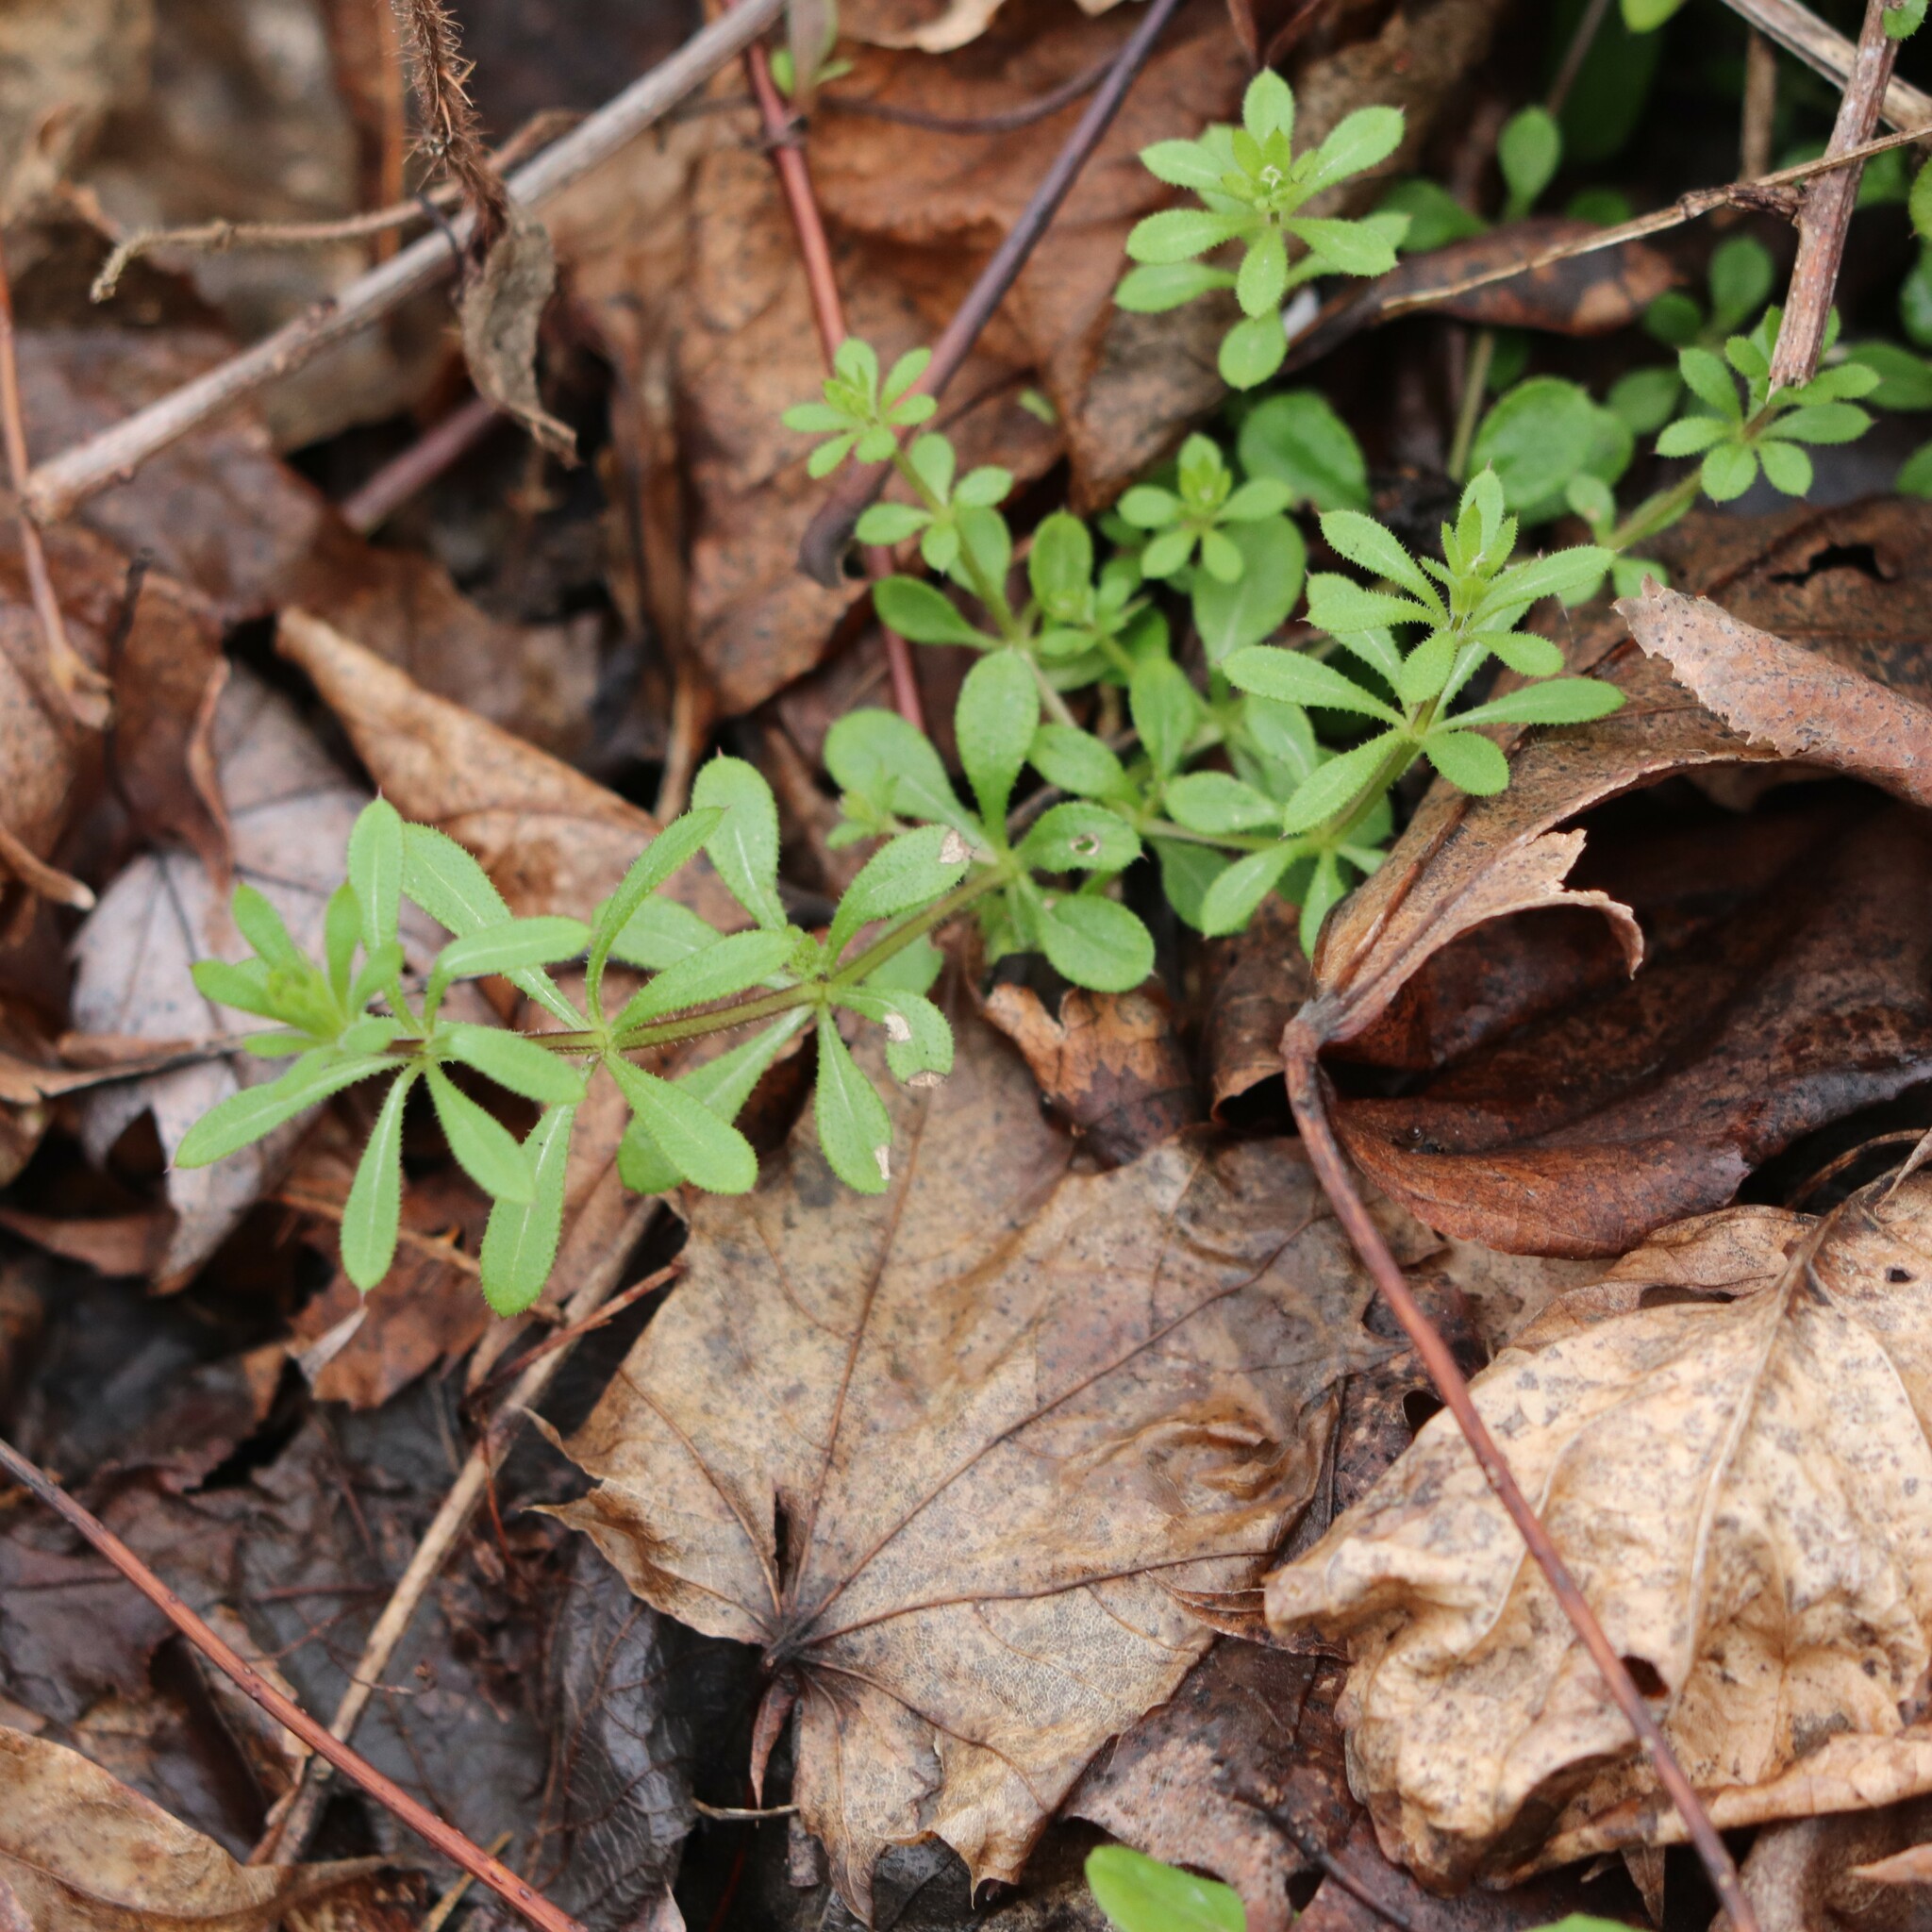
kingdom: Plantae
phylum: Tracheophyta
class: Magnoliopsida
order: Gentianales
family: Rubiaceae
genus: Galium
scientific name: Galium aparine
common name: Cleavers
